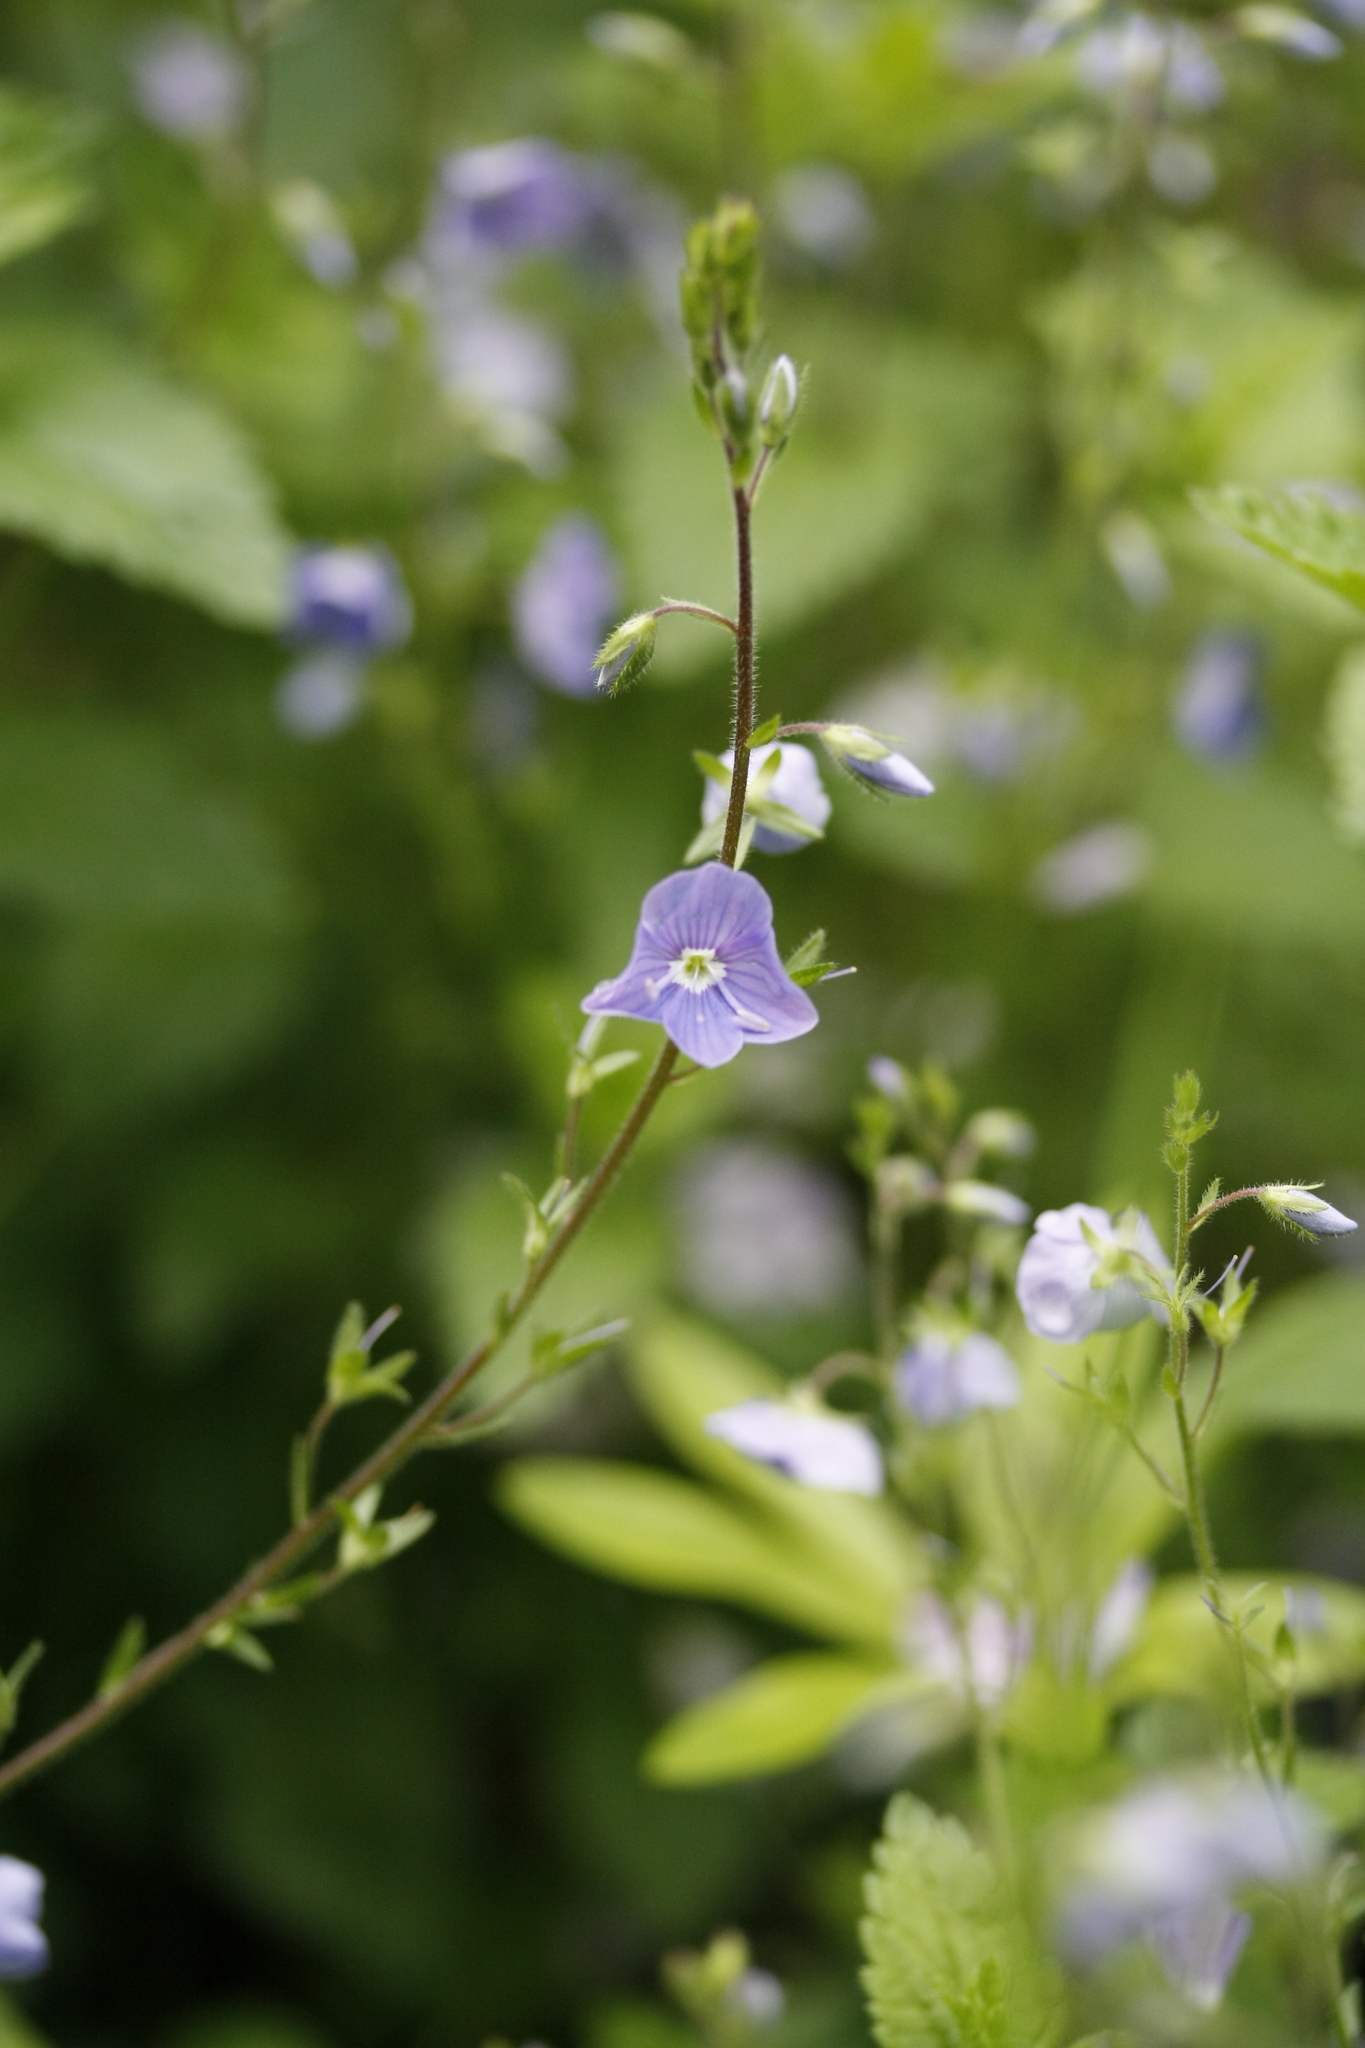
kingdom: Plantae
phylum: Tracheophyta
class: Magnoliopsida
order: Lamiales
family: Plantaginaceae
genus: Veronica
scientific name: Veronica chamaedrys
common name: Germander speedwell
